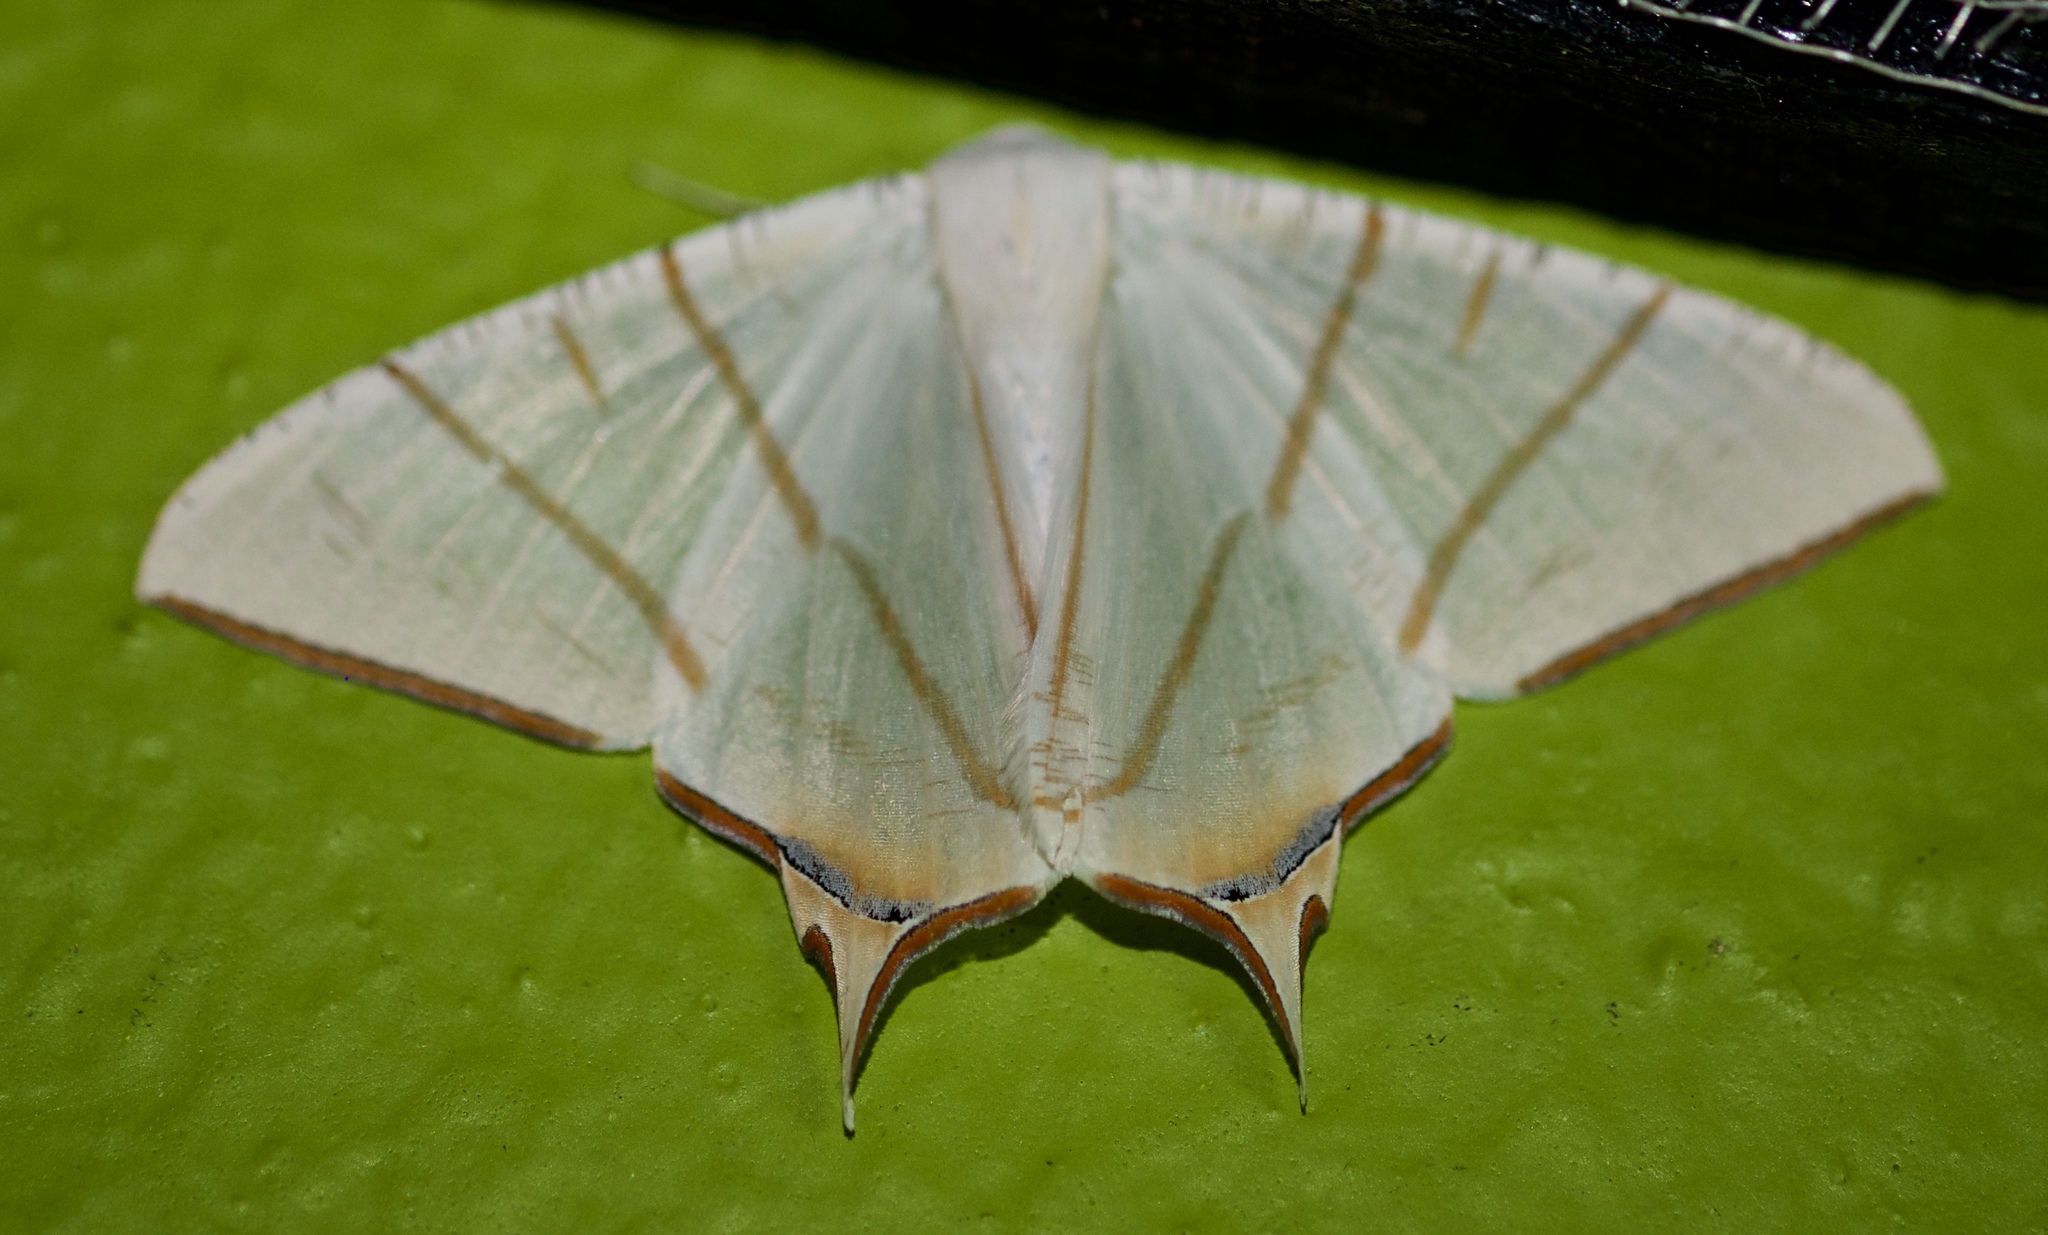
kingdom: Animalia
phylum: Arthropoda
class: Insecta
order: Lepidoptera
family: Geometridae
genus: Ourapteryx
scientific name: Ourapteryx claretta
